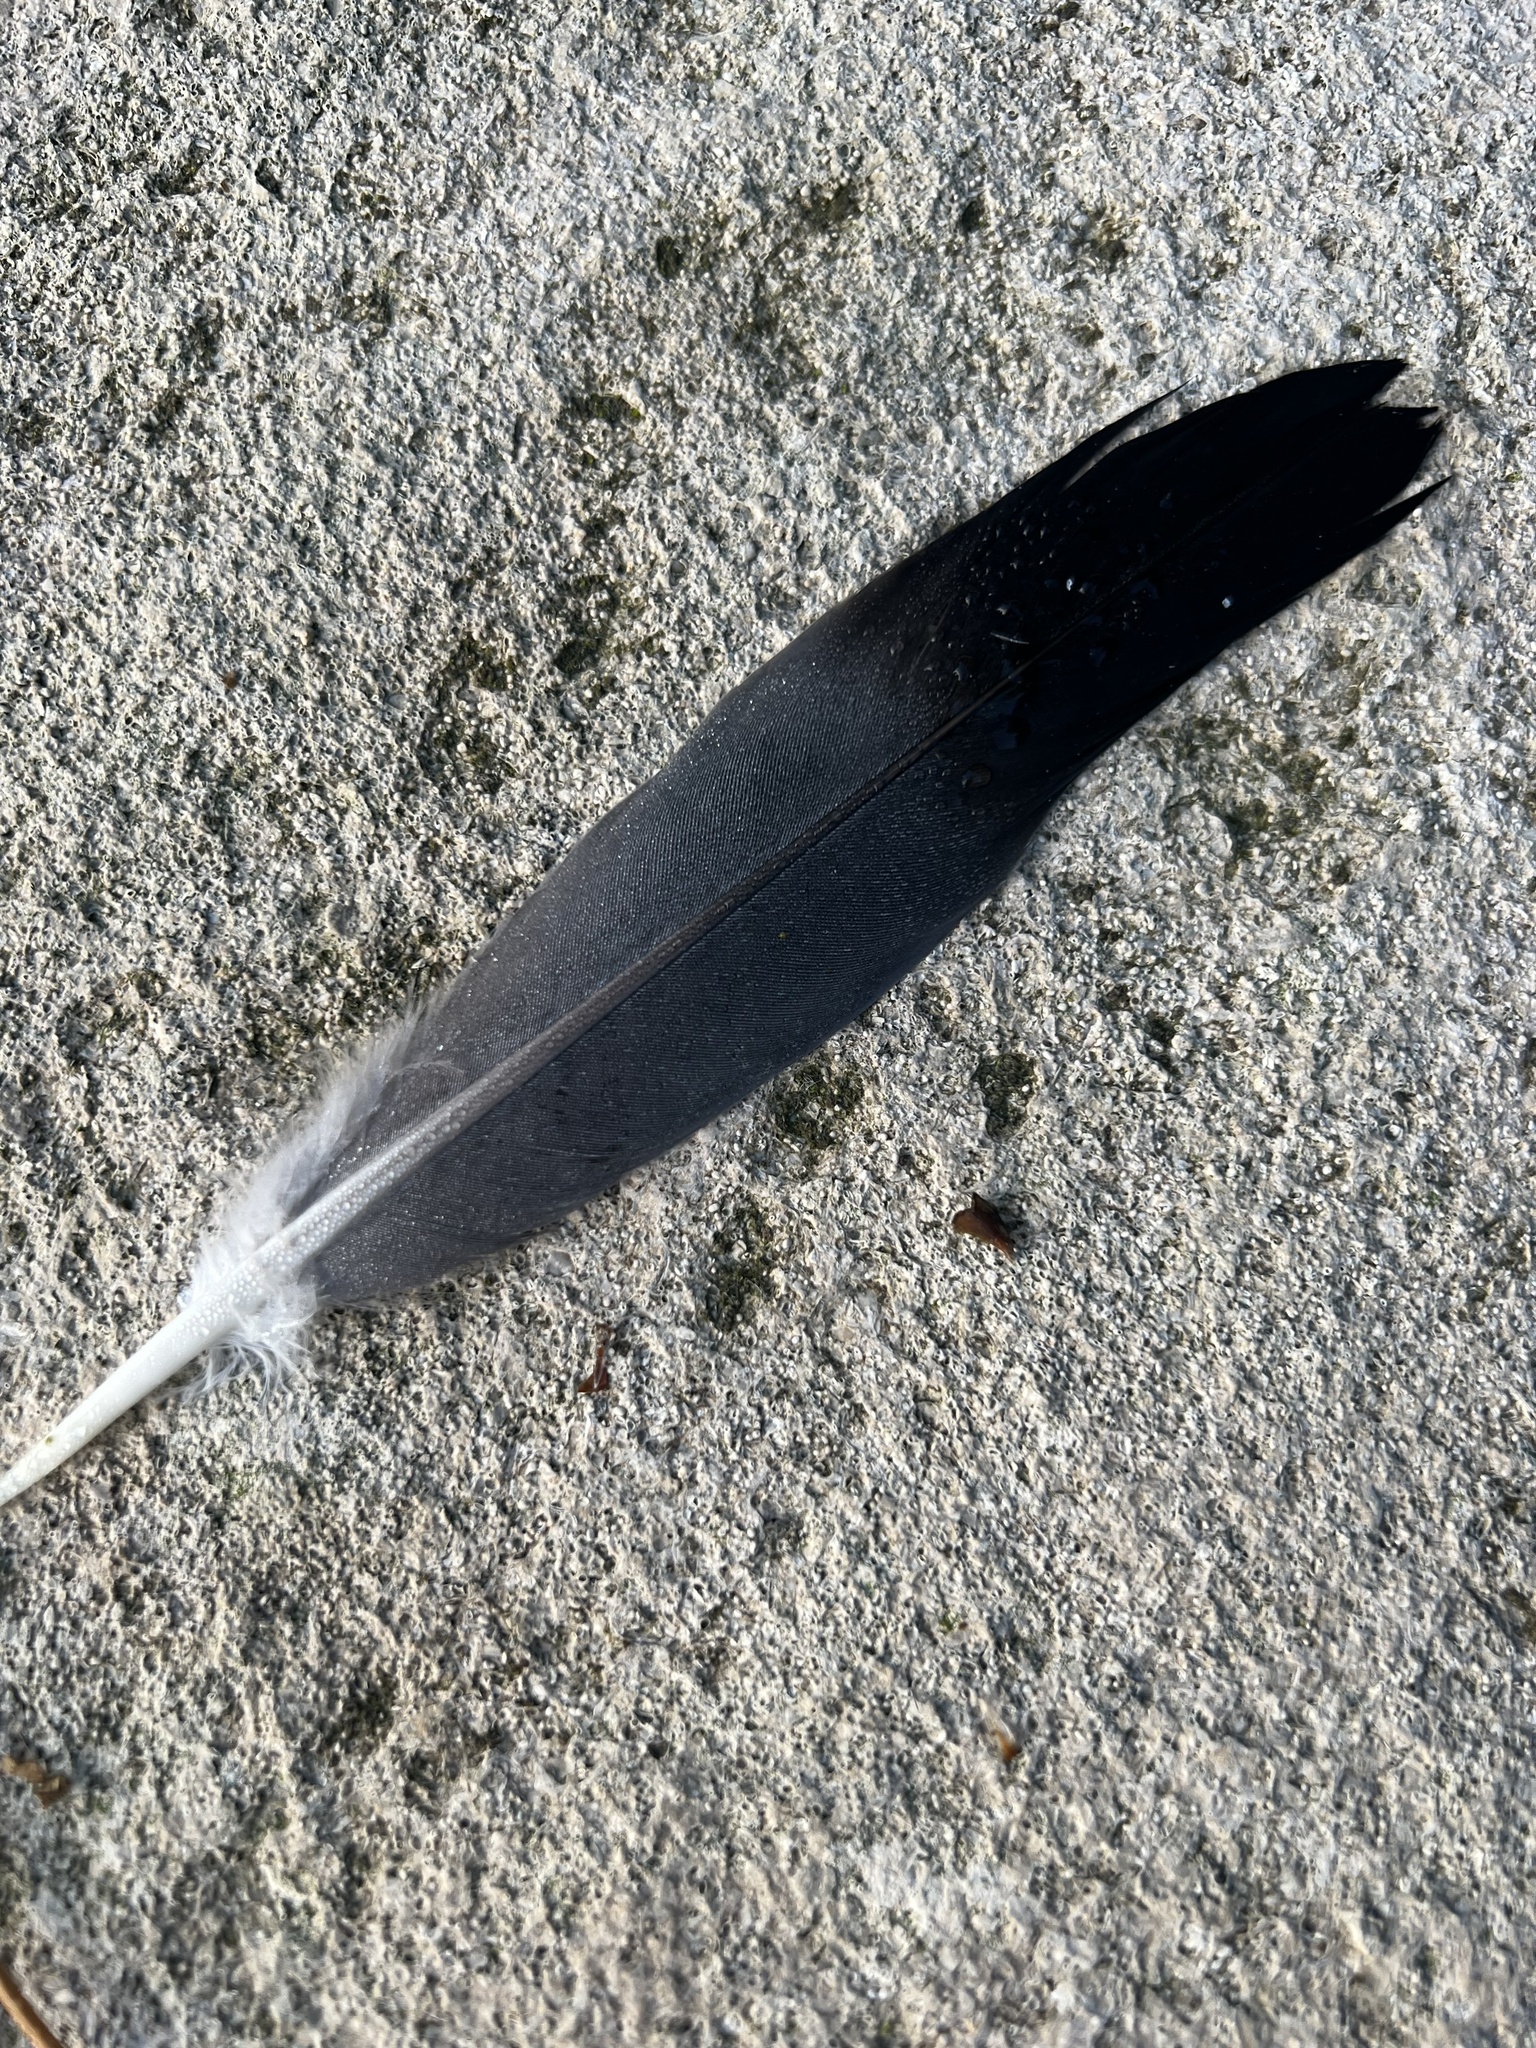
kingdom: Animalia
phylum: Chordata
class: Aves
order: Columbiformes
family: Columbidae
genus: Columba
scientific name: Columba livia
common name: Rock pigeon
